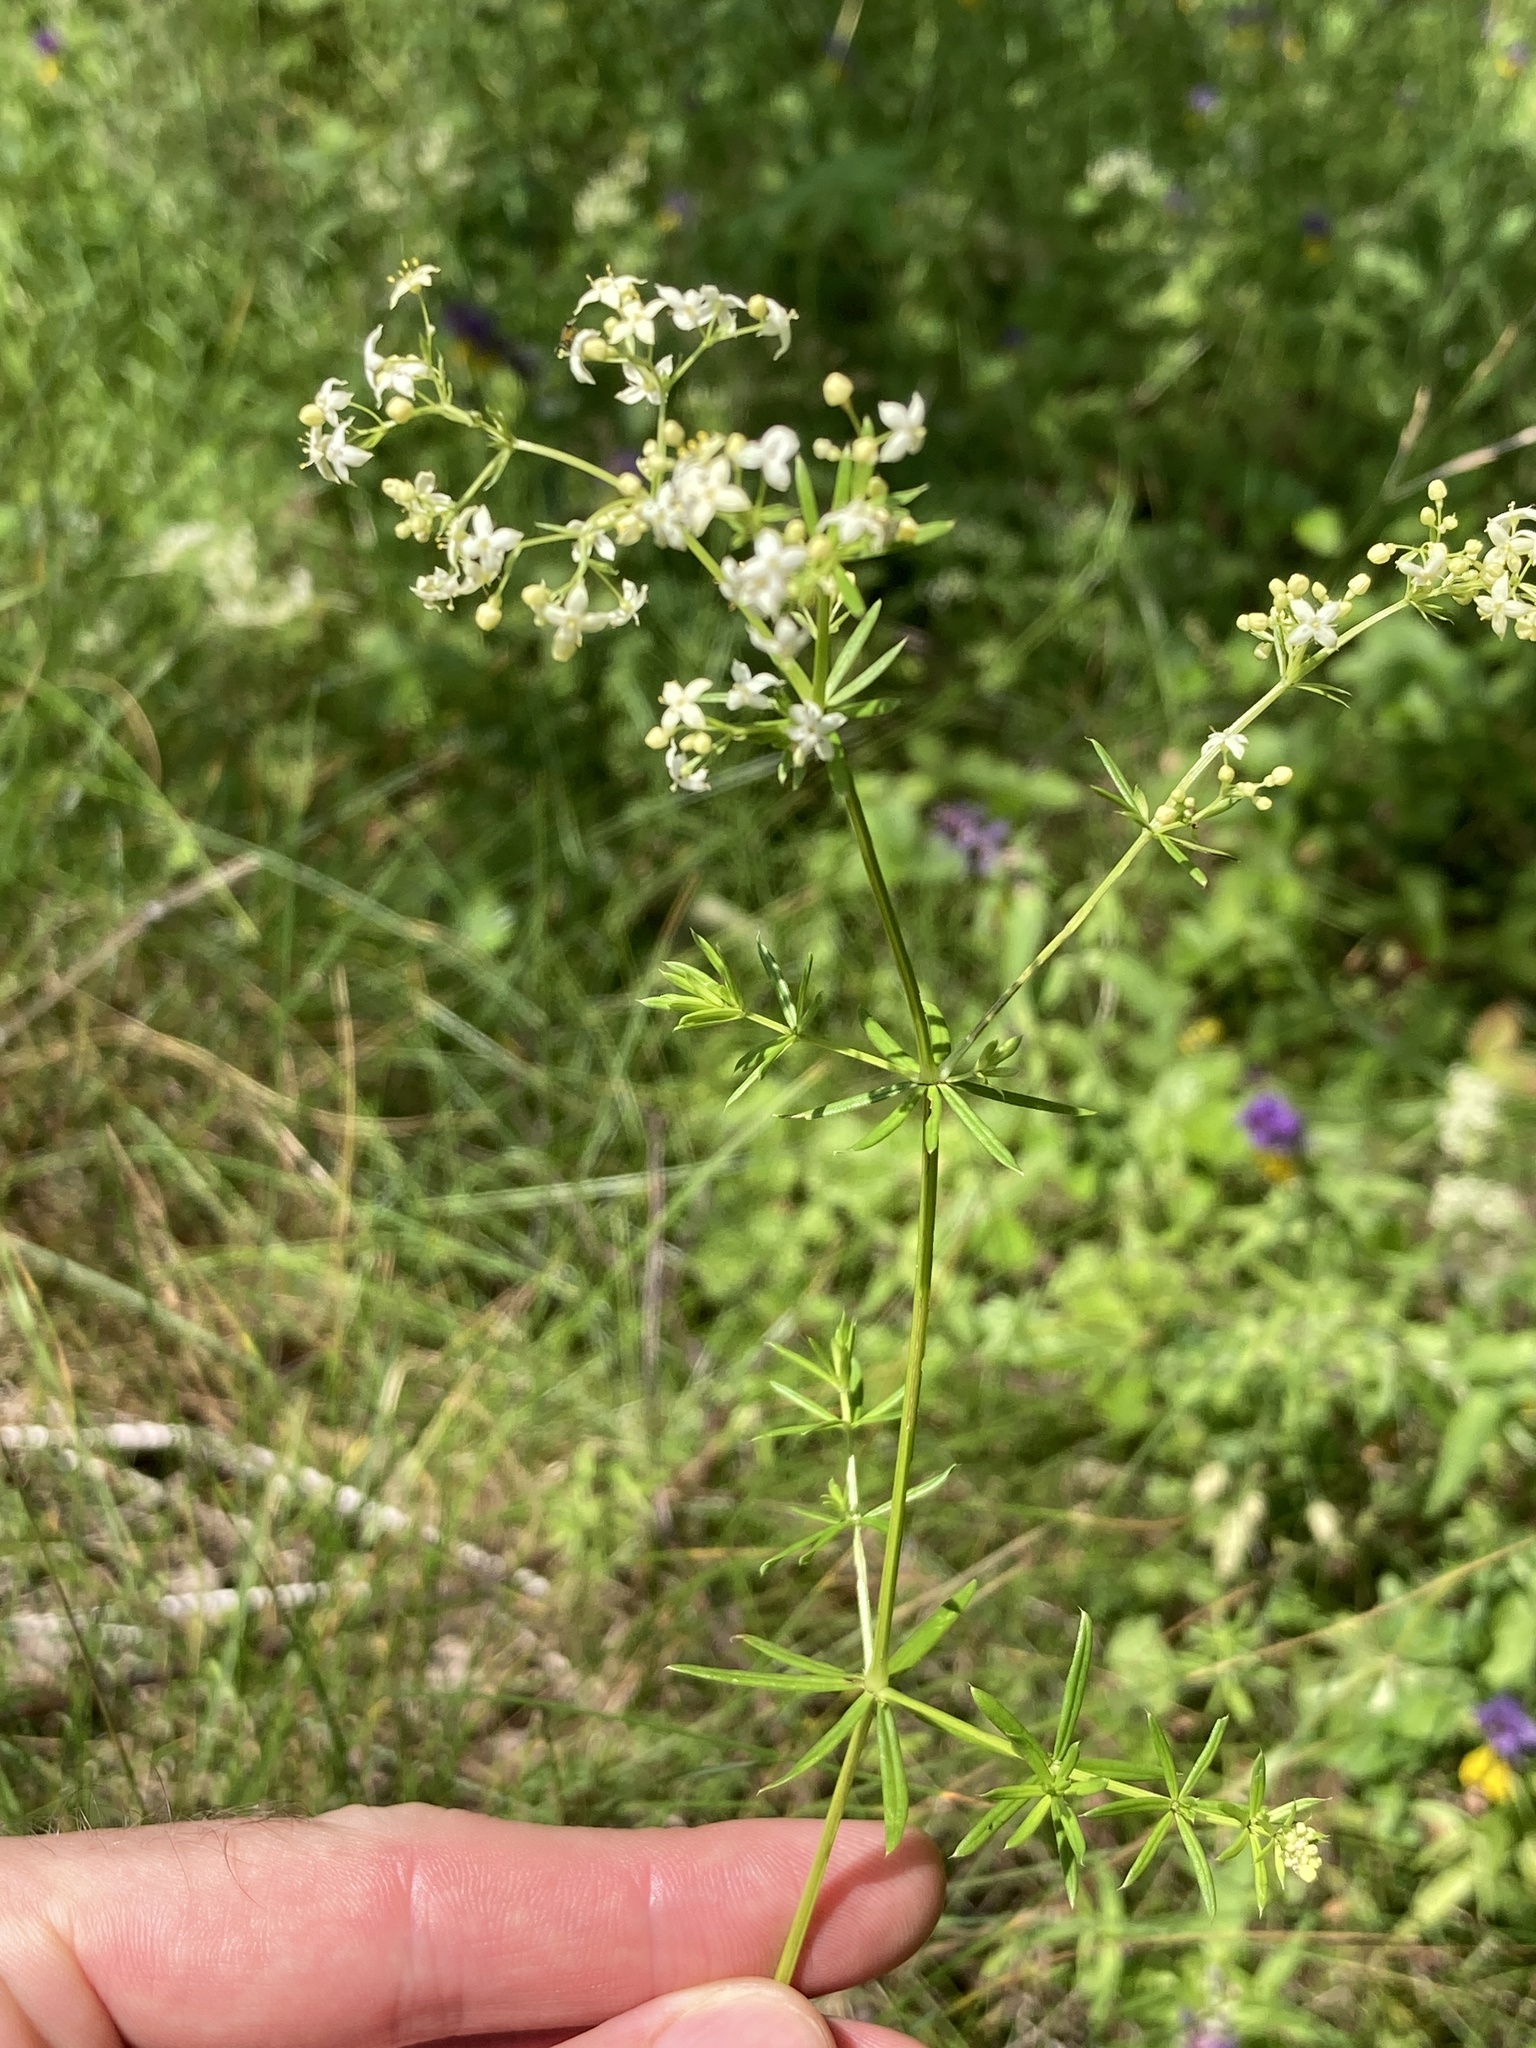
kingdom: Plantae
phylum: Tracheophyta
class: Magnoliopsida
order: Gentianales
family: Rubiaceae
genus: Galium
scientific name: Galium mollugo
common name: Hedge bedstraw
